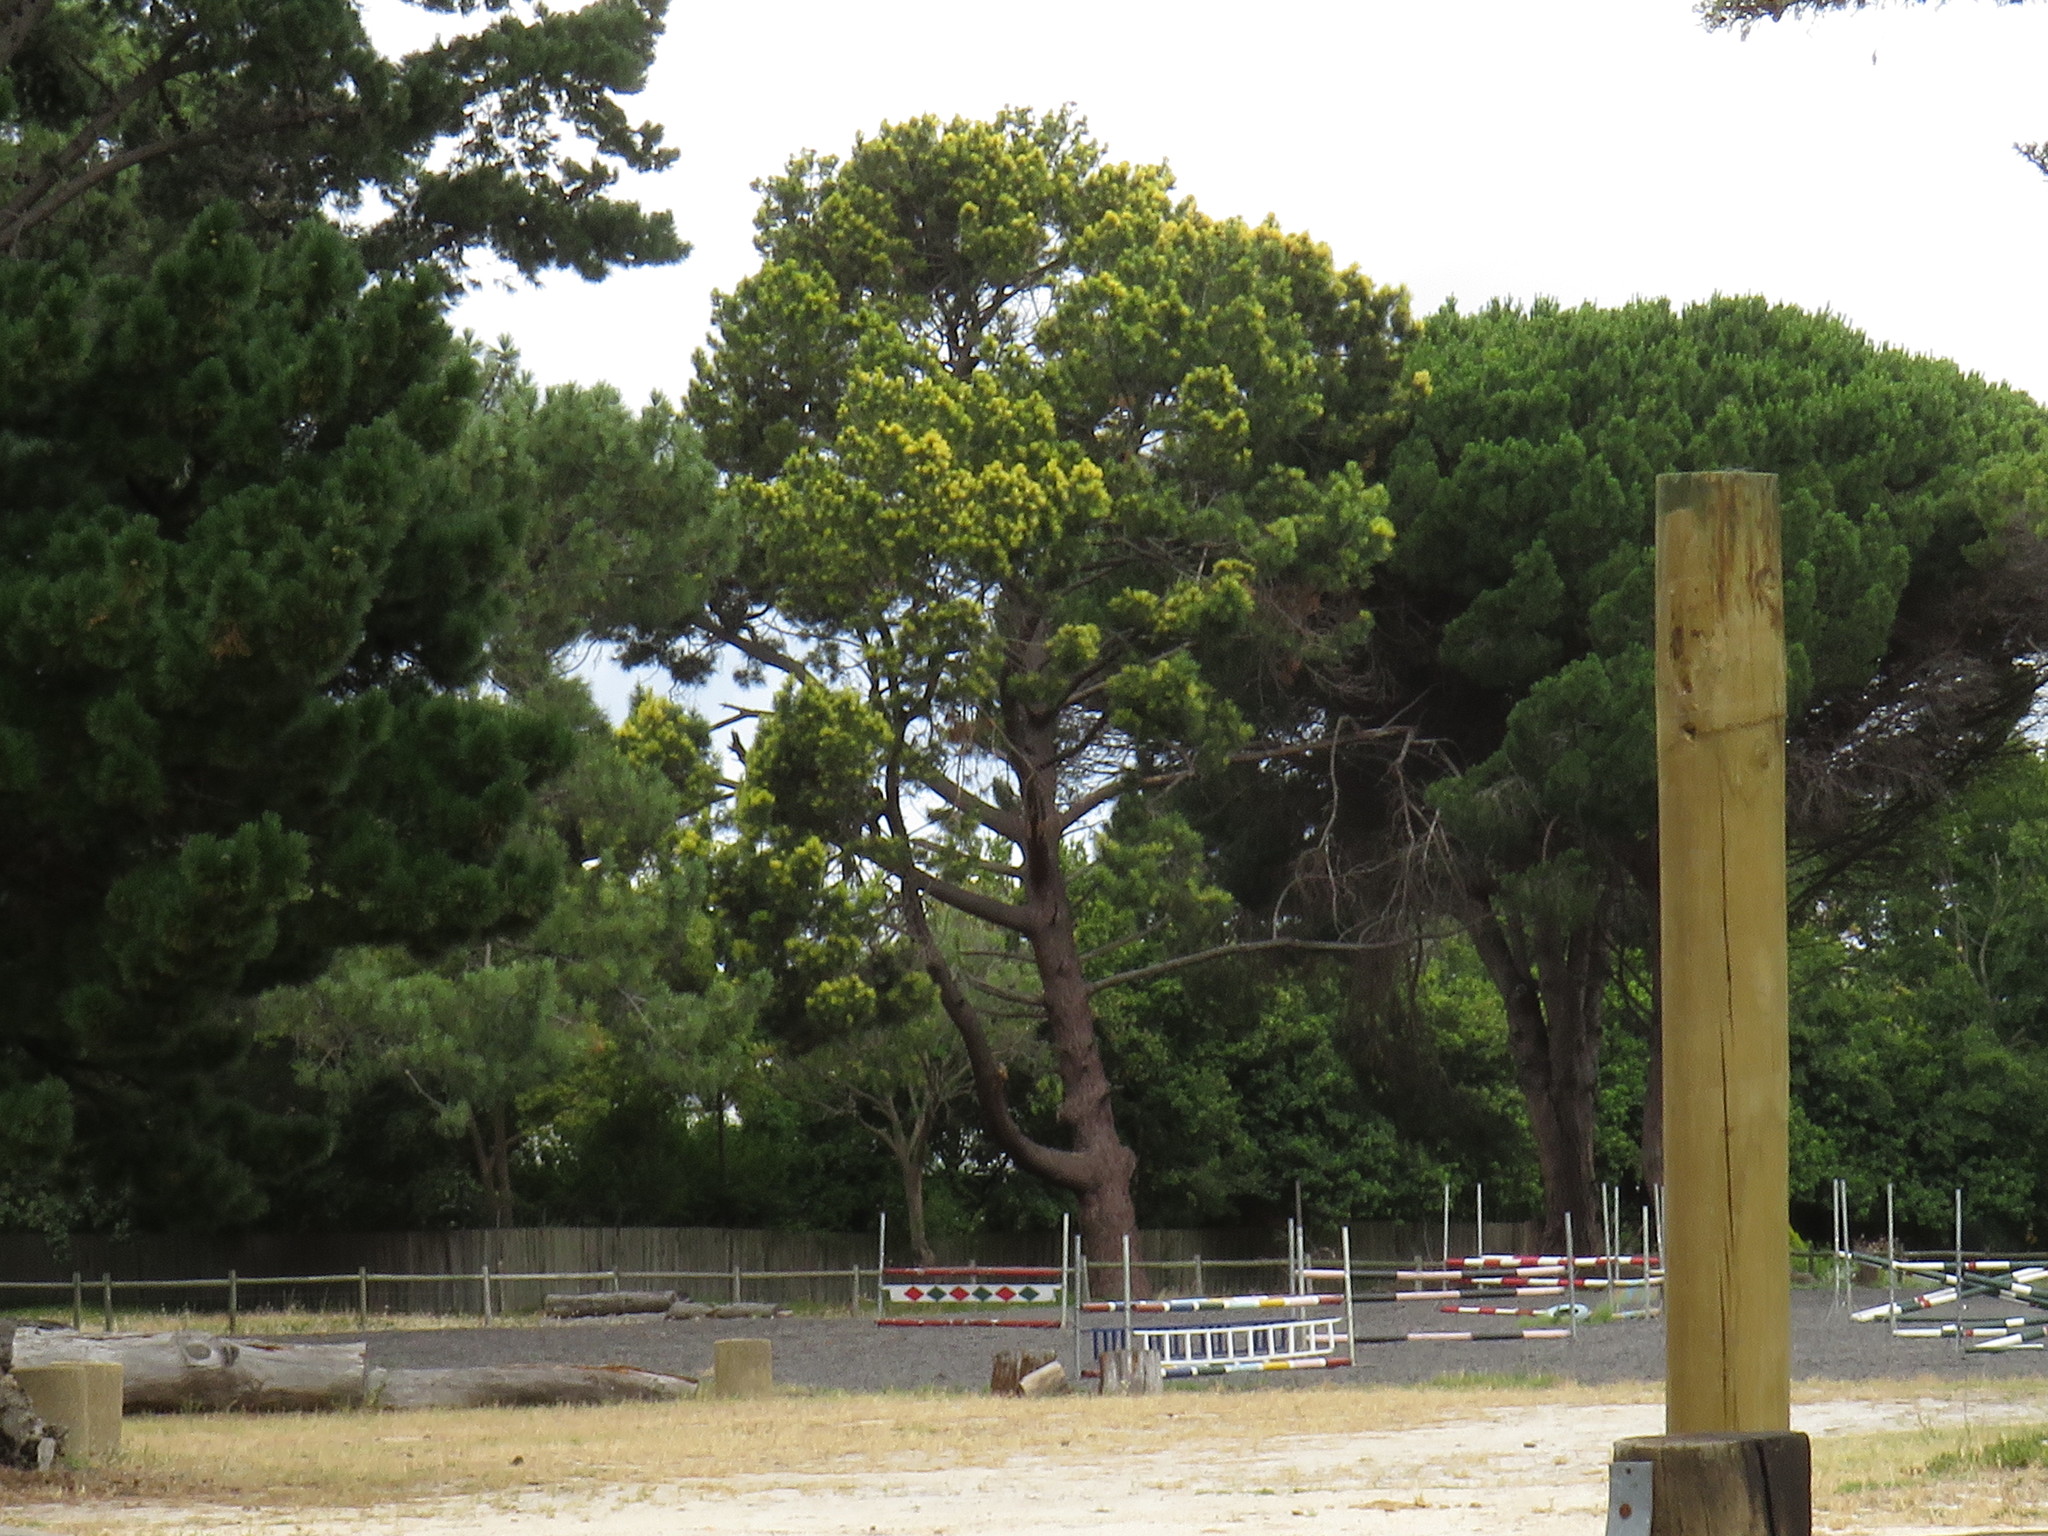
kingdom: Plantae
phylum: Tracheophyta
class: Pinopsida
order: Pinales
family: Pinaceae
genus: Pinus
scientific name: Pinus radiata
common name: Monterey pine
